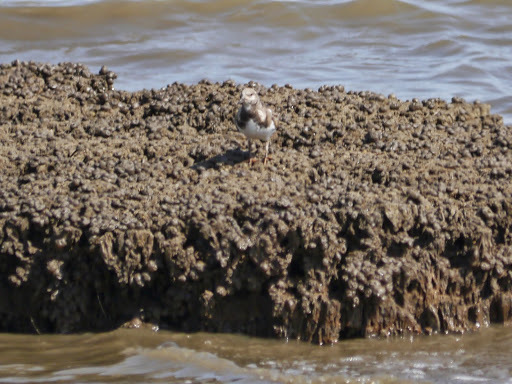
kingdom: Animalia
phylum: Chordata
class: Aves
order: Charadriiformes
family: Scolopacidae
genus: Arenaria
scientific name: Arenaria interpres
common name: Ruddy turnstone
